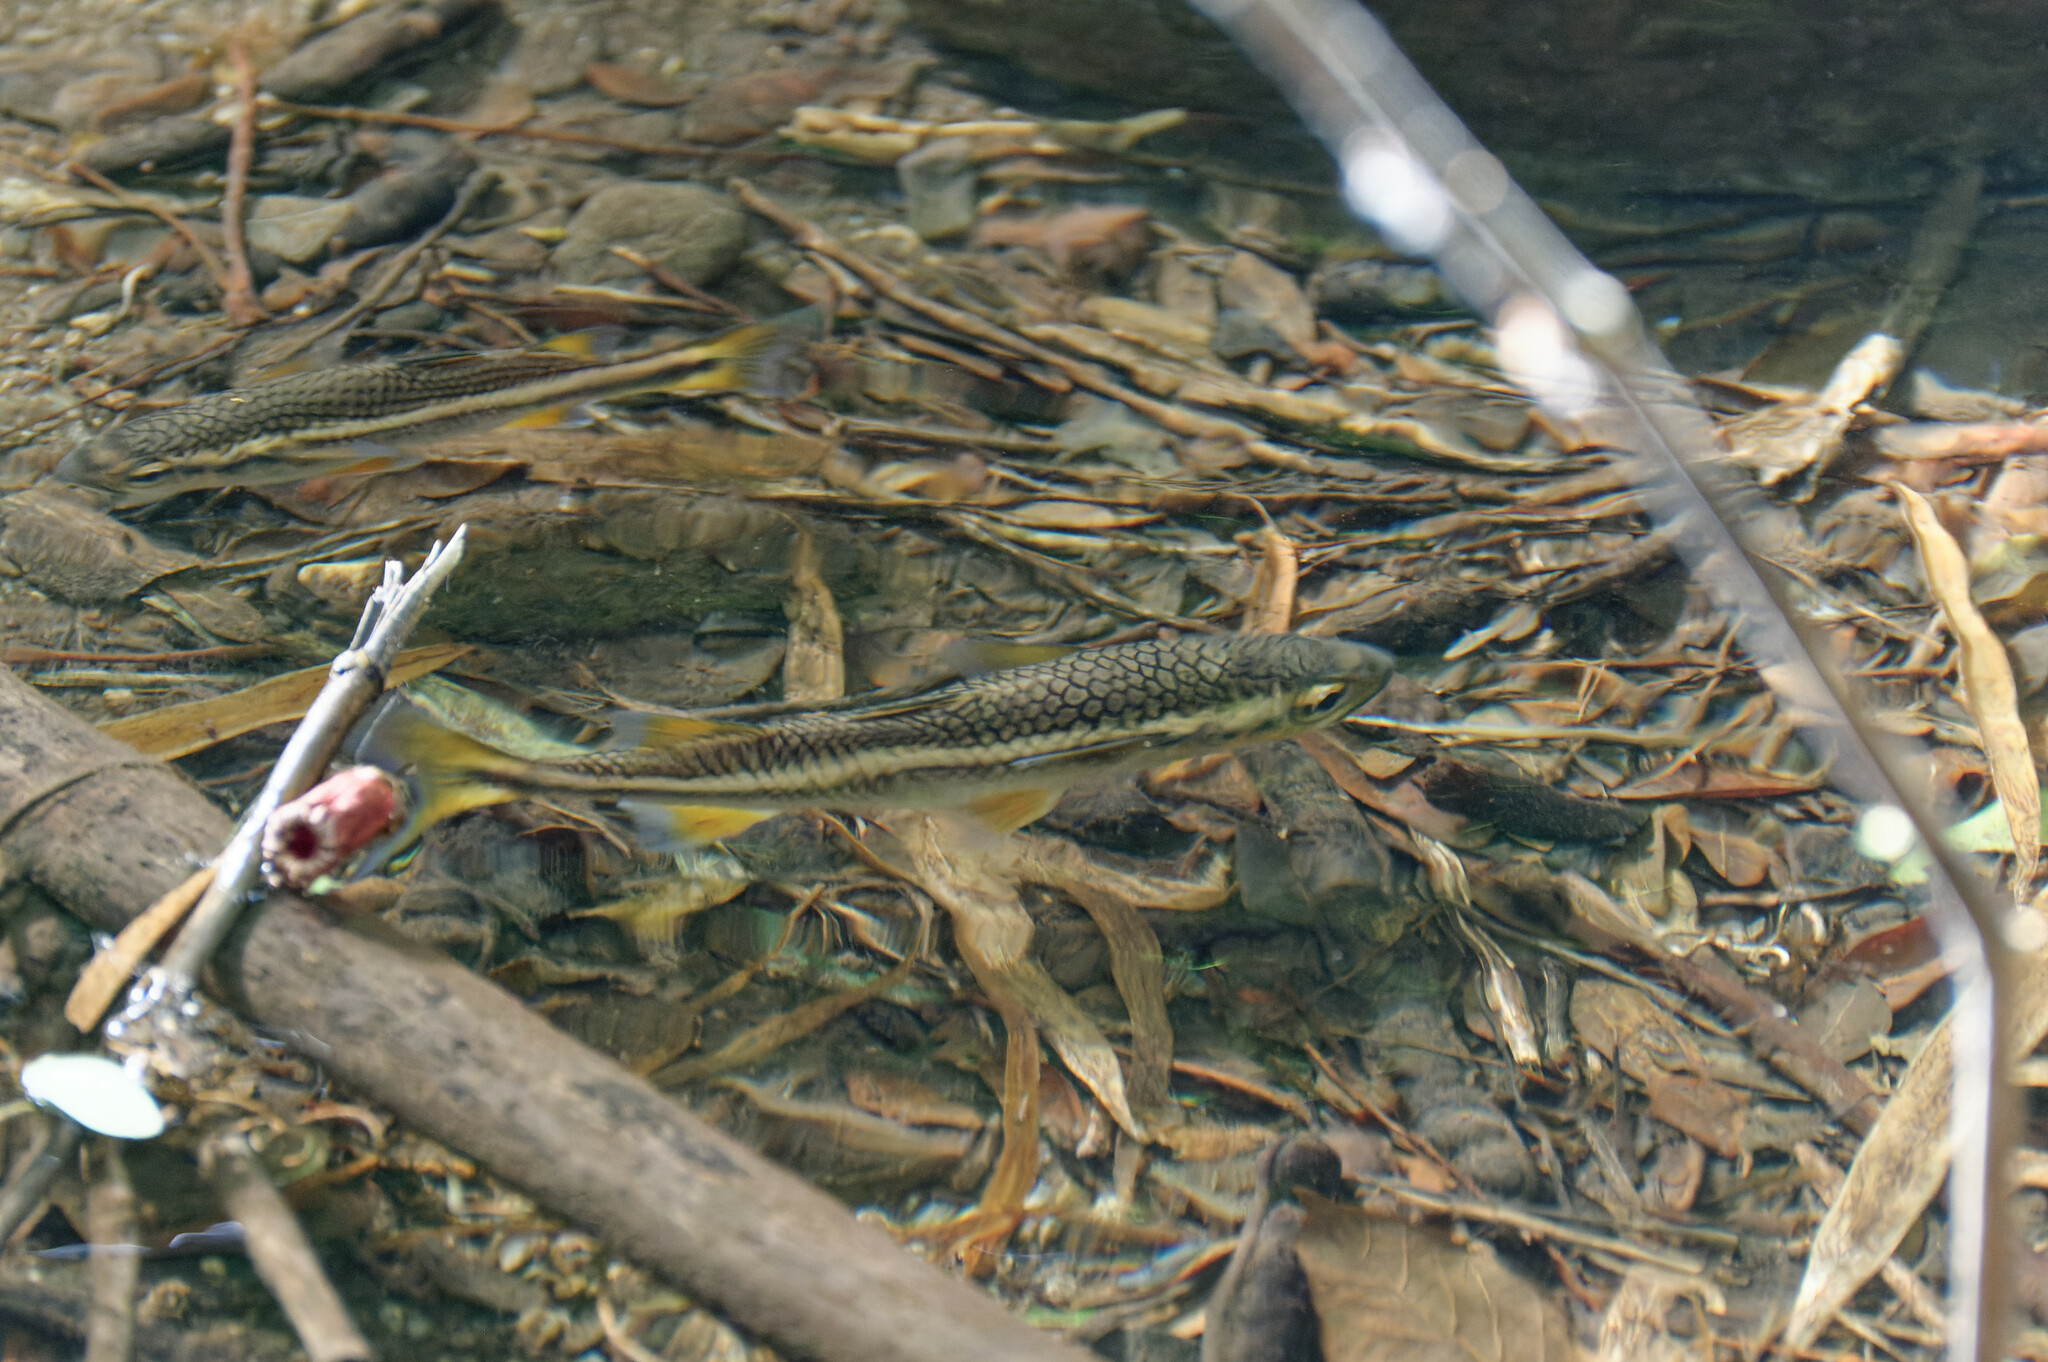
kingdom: Animalia
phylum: Chordata
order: Mugiliformes
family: Mugilidae
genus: Dajaus
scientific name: Dajaus monticola
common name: Mountain mullet
